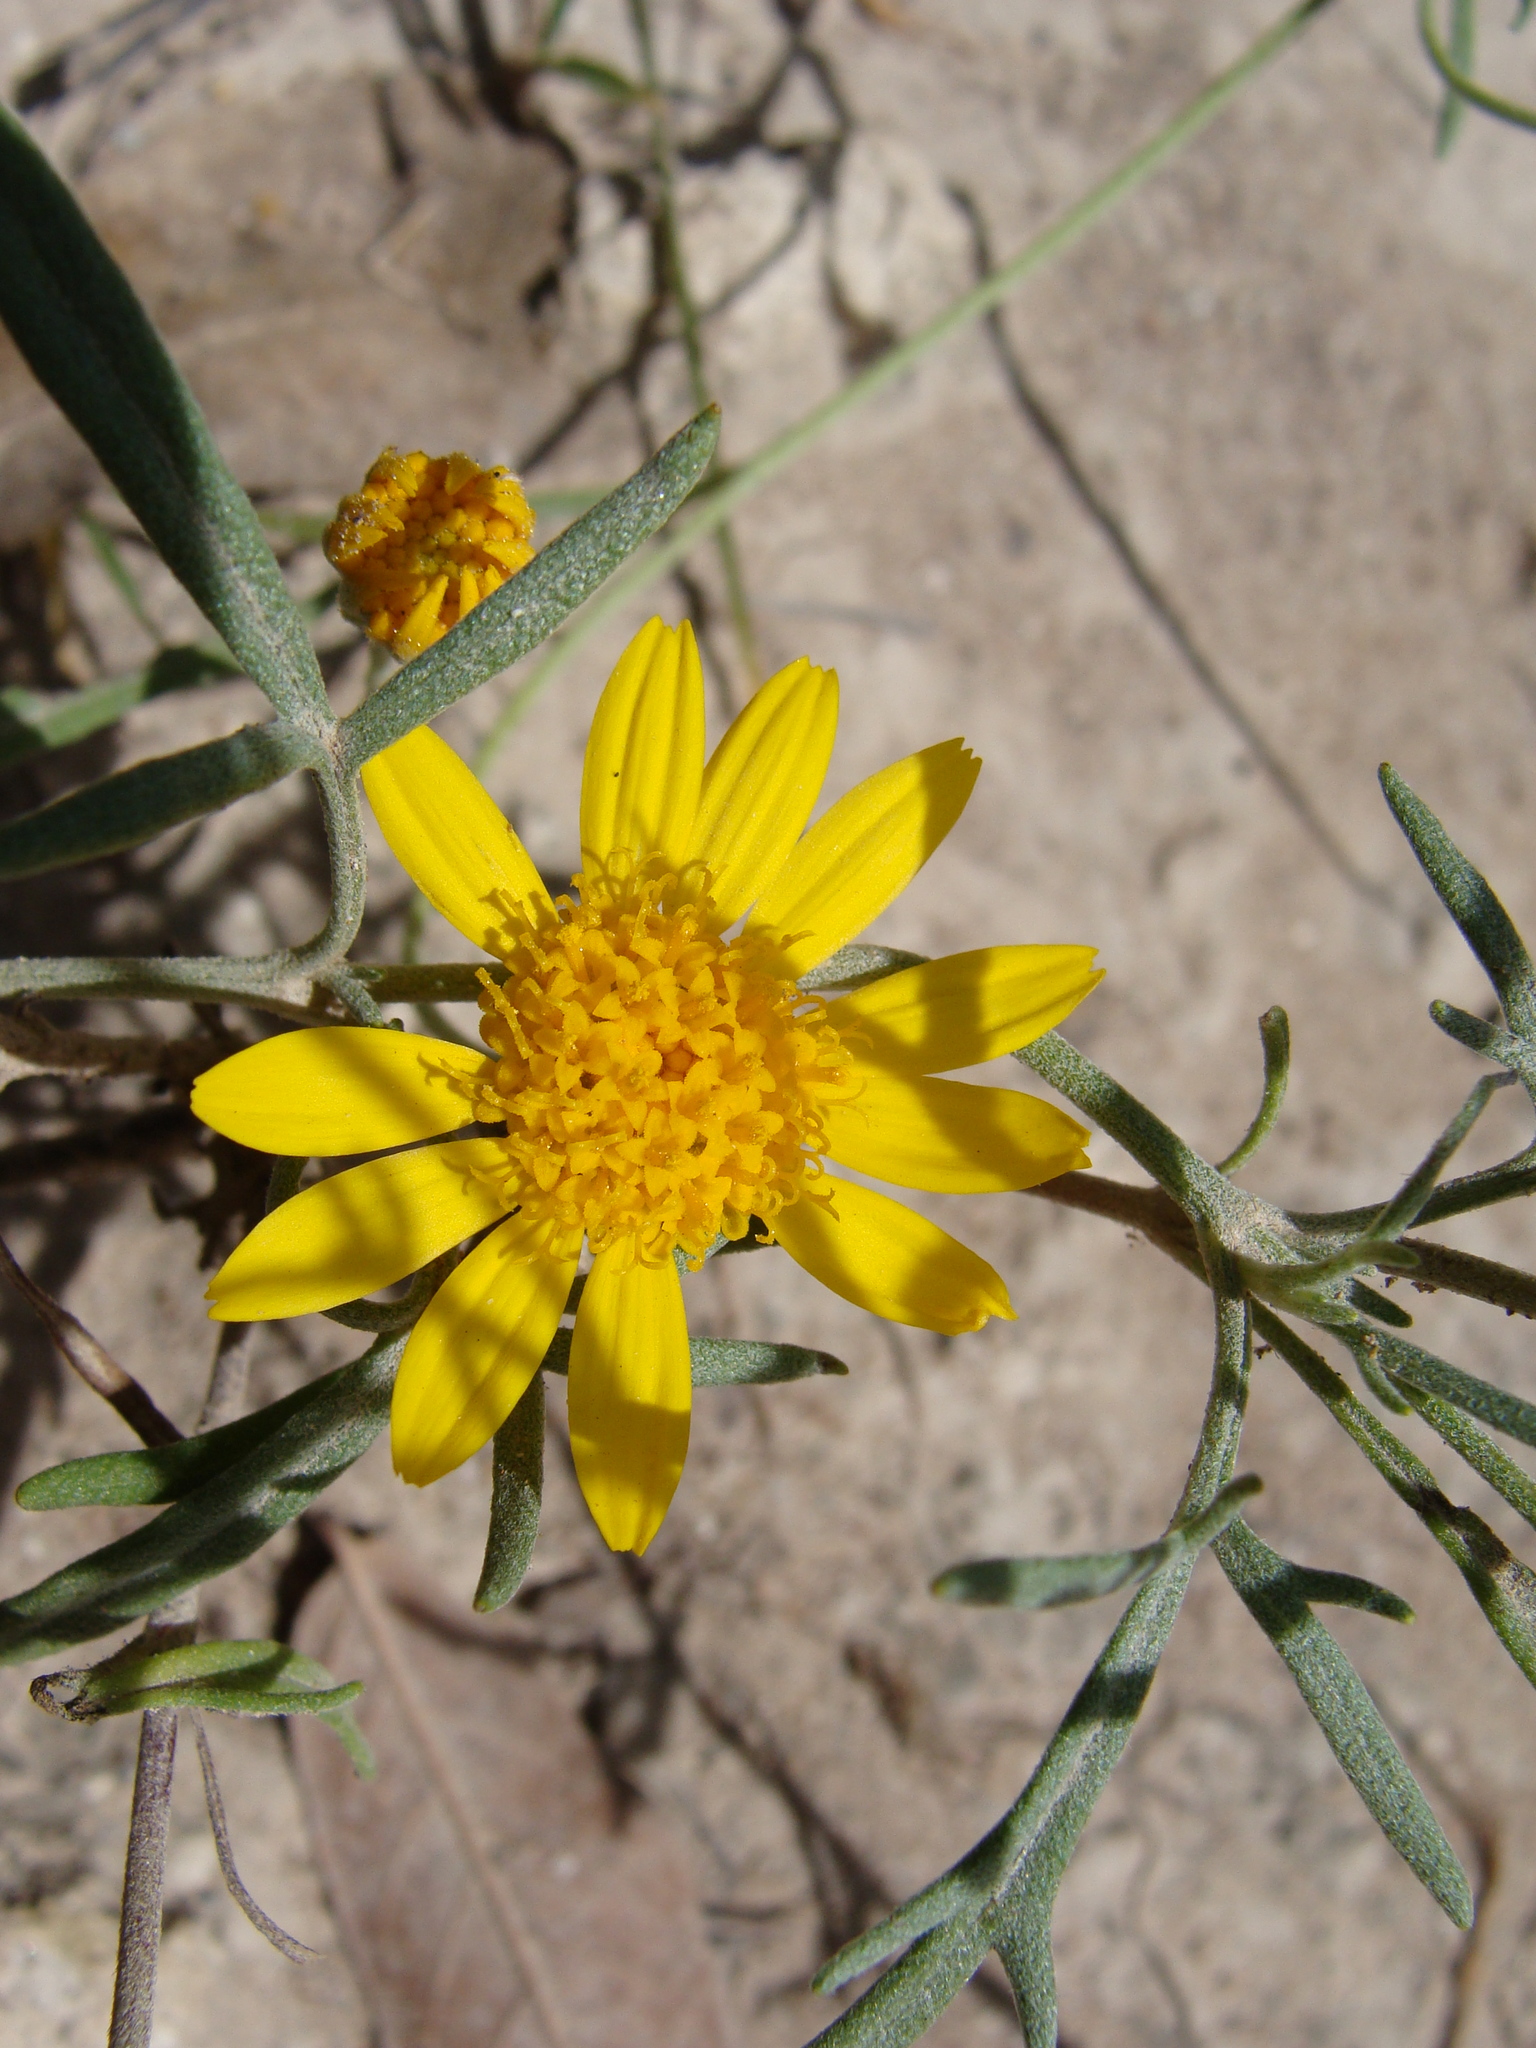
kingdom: Plantae
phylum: Tracheophyta
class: Magnoliopsida
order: Asterales
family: Asteraceae
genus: Picradeniopsis
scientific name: Picradeniopsis absinthifolia
